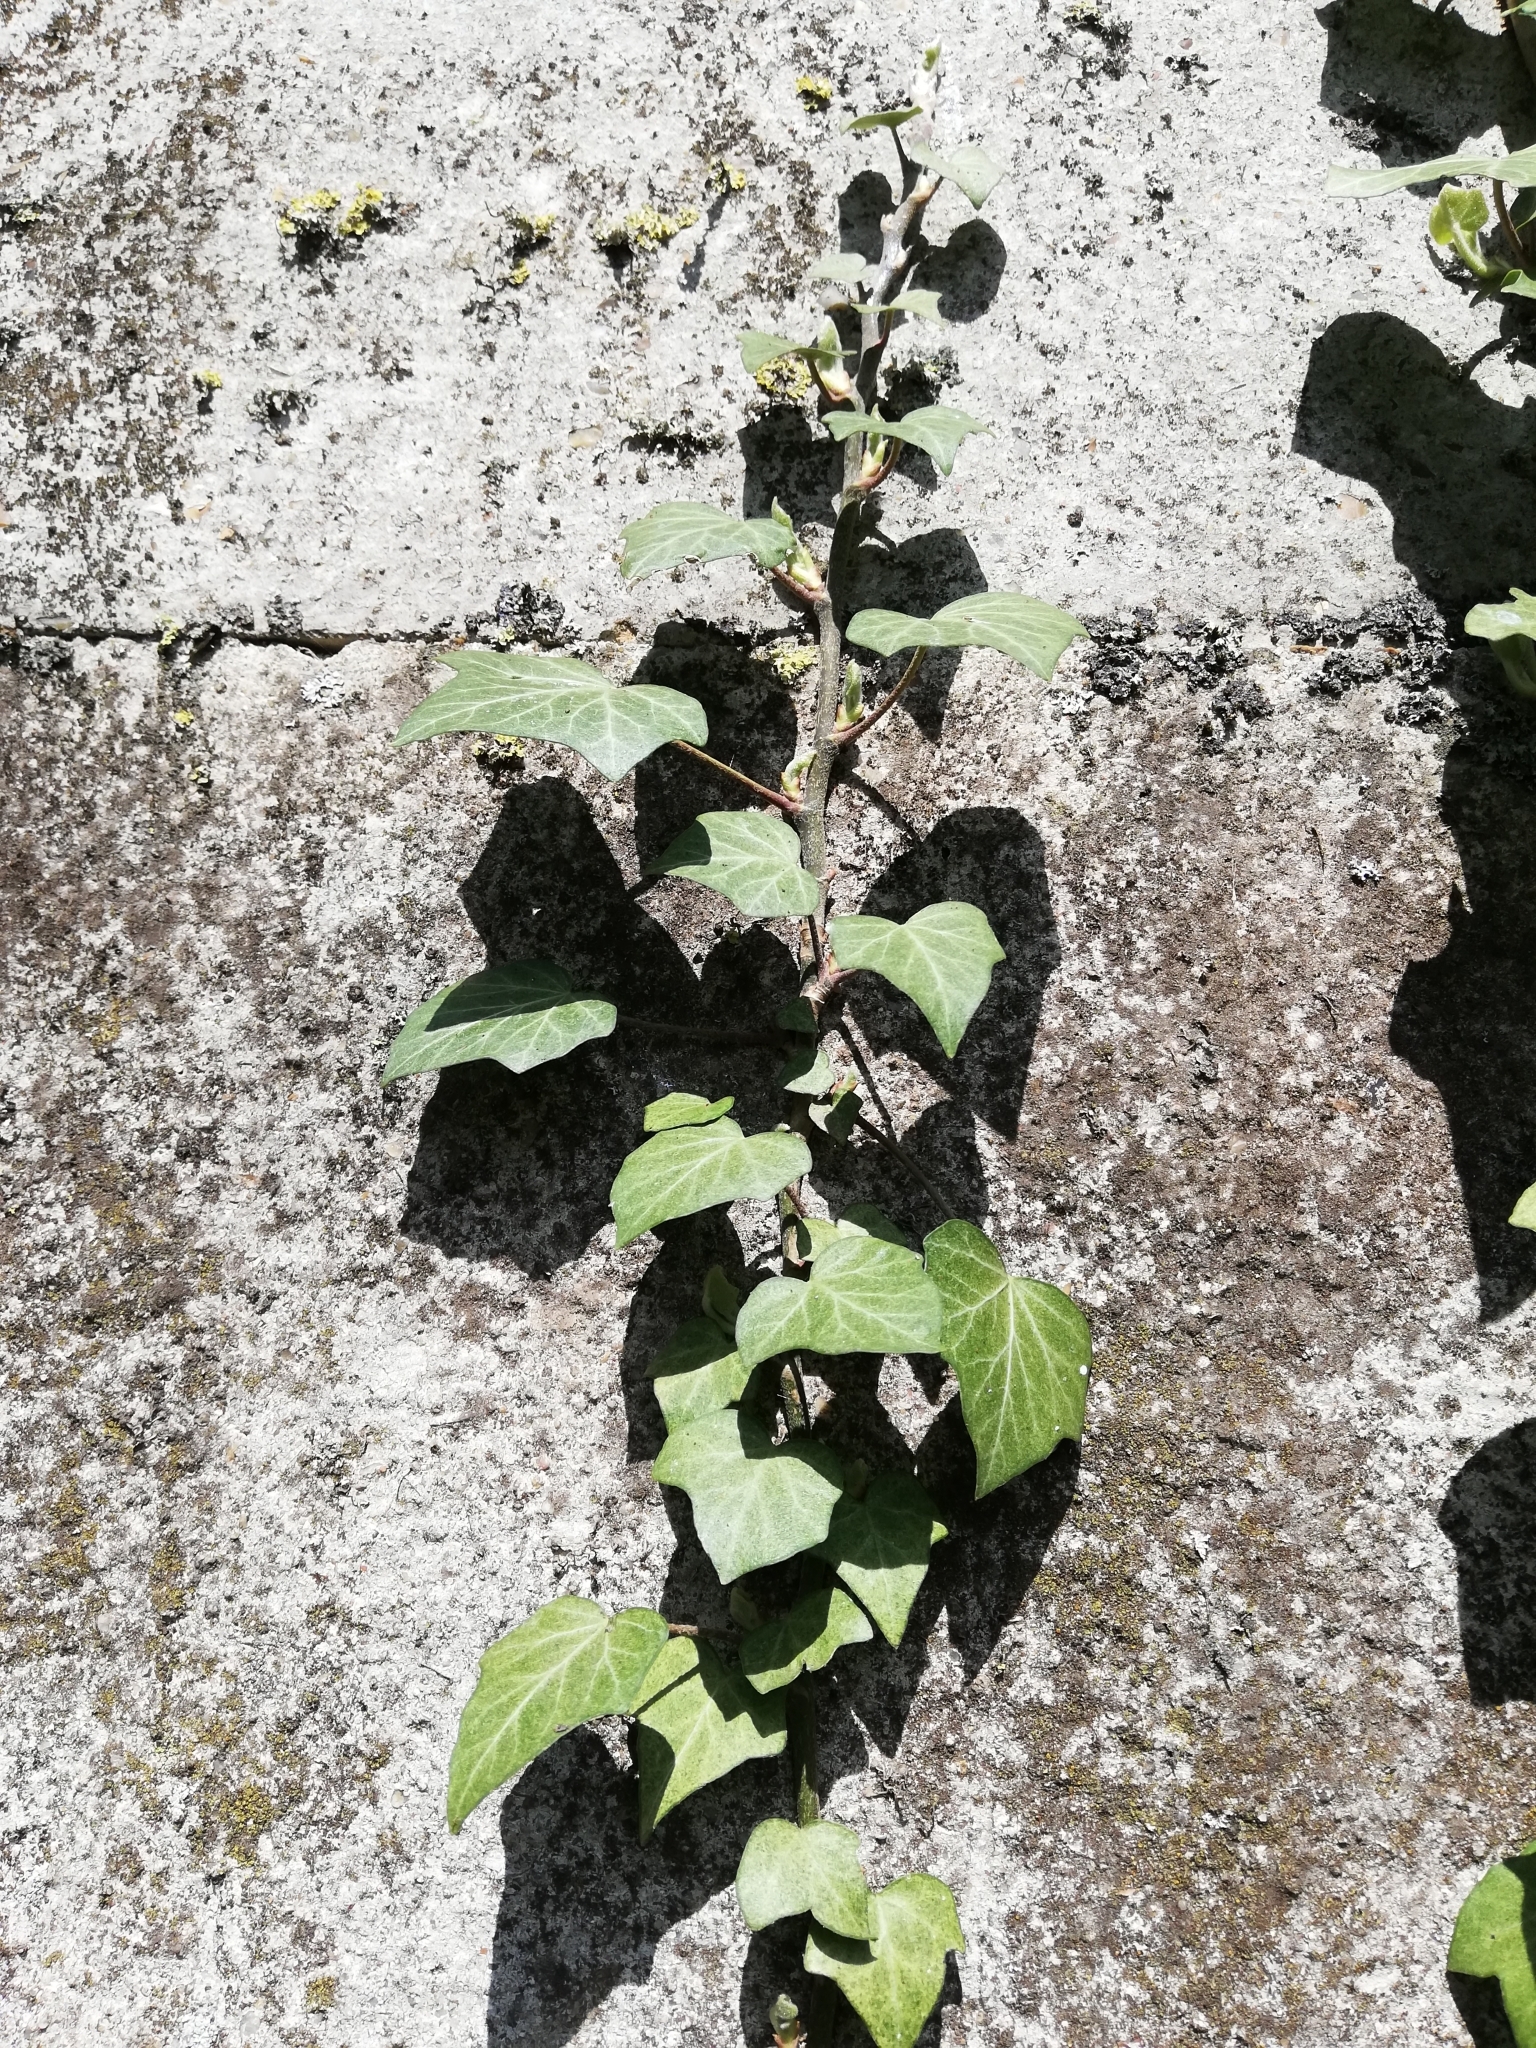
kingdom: Plantae
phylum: Tracheophyta
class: Magnoliopsida
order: Apiales
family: Araliaceae
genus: Hedera
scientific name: Hedera helix
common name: Ivy
